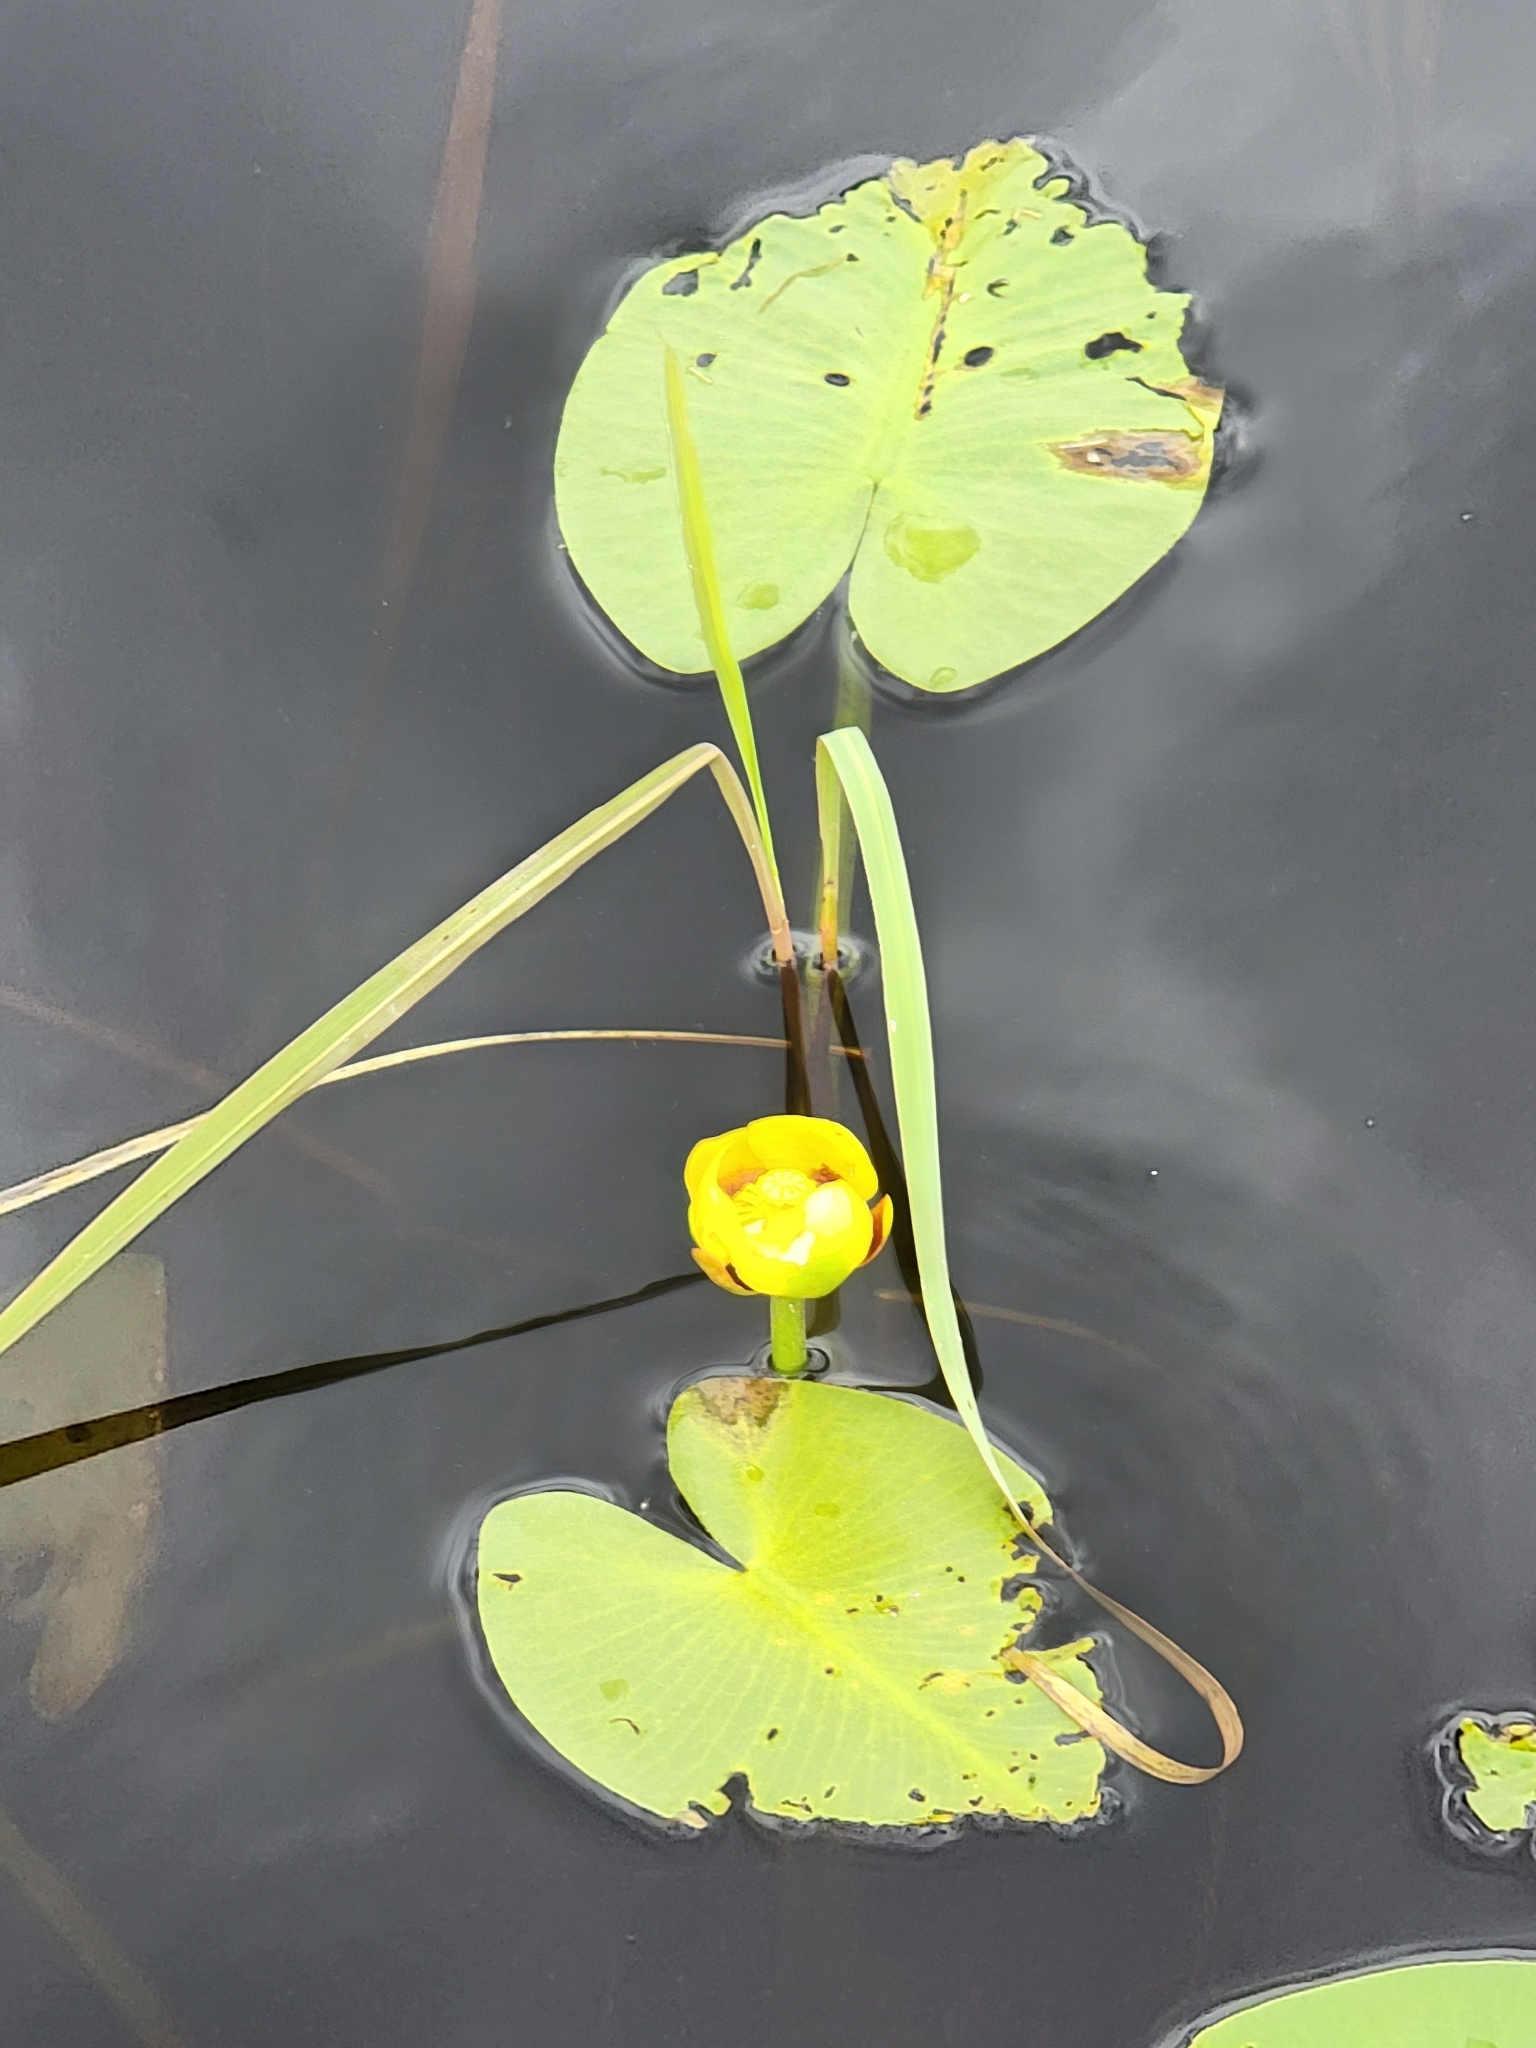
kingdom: Plantae
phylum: Tracheophyta
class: Magnoliopsida
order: Nymphaeales
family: Nymphaeaceae
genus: Nuphar
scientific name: Nuphar variegata
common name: Beaver-root
